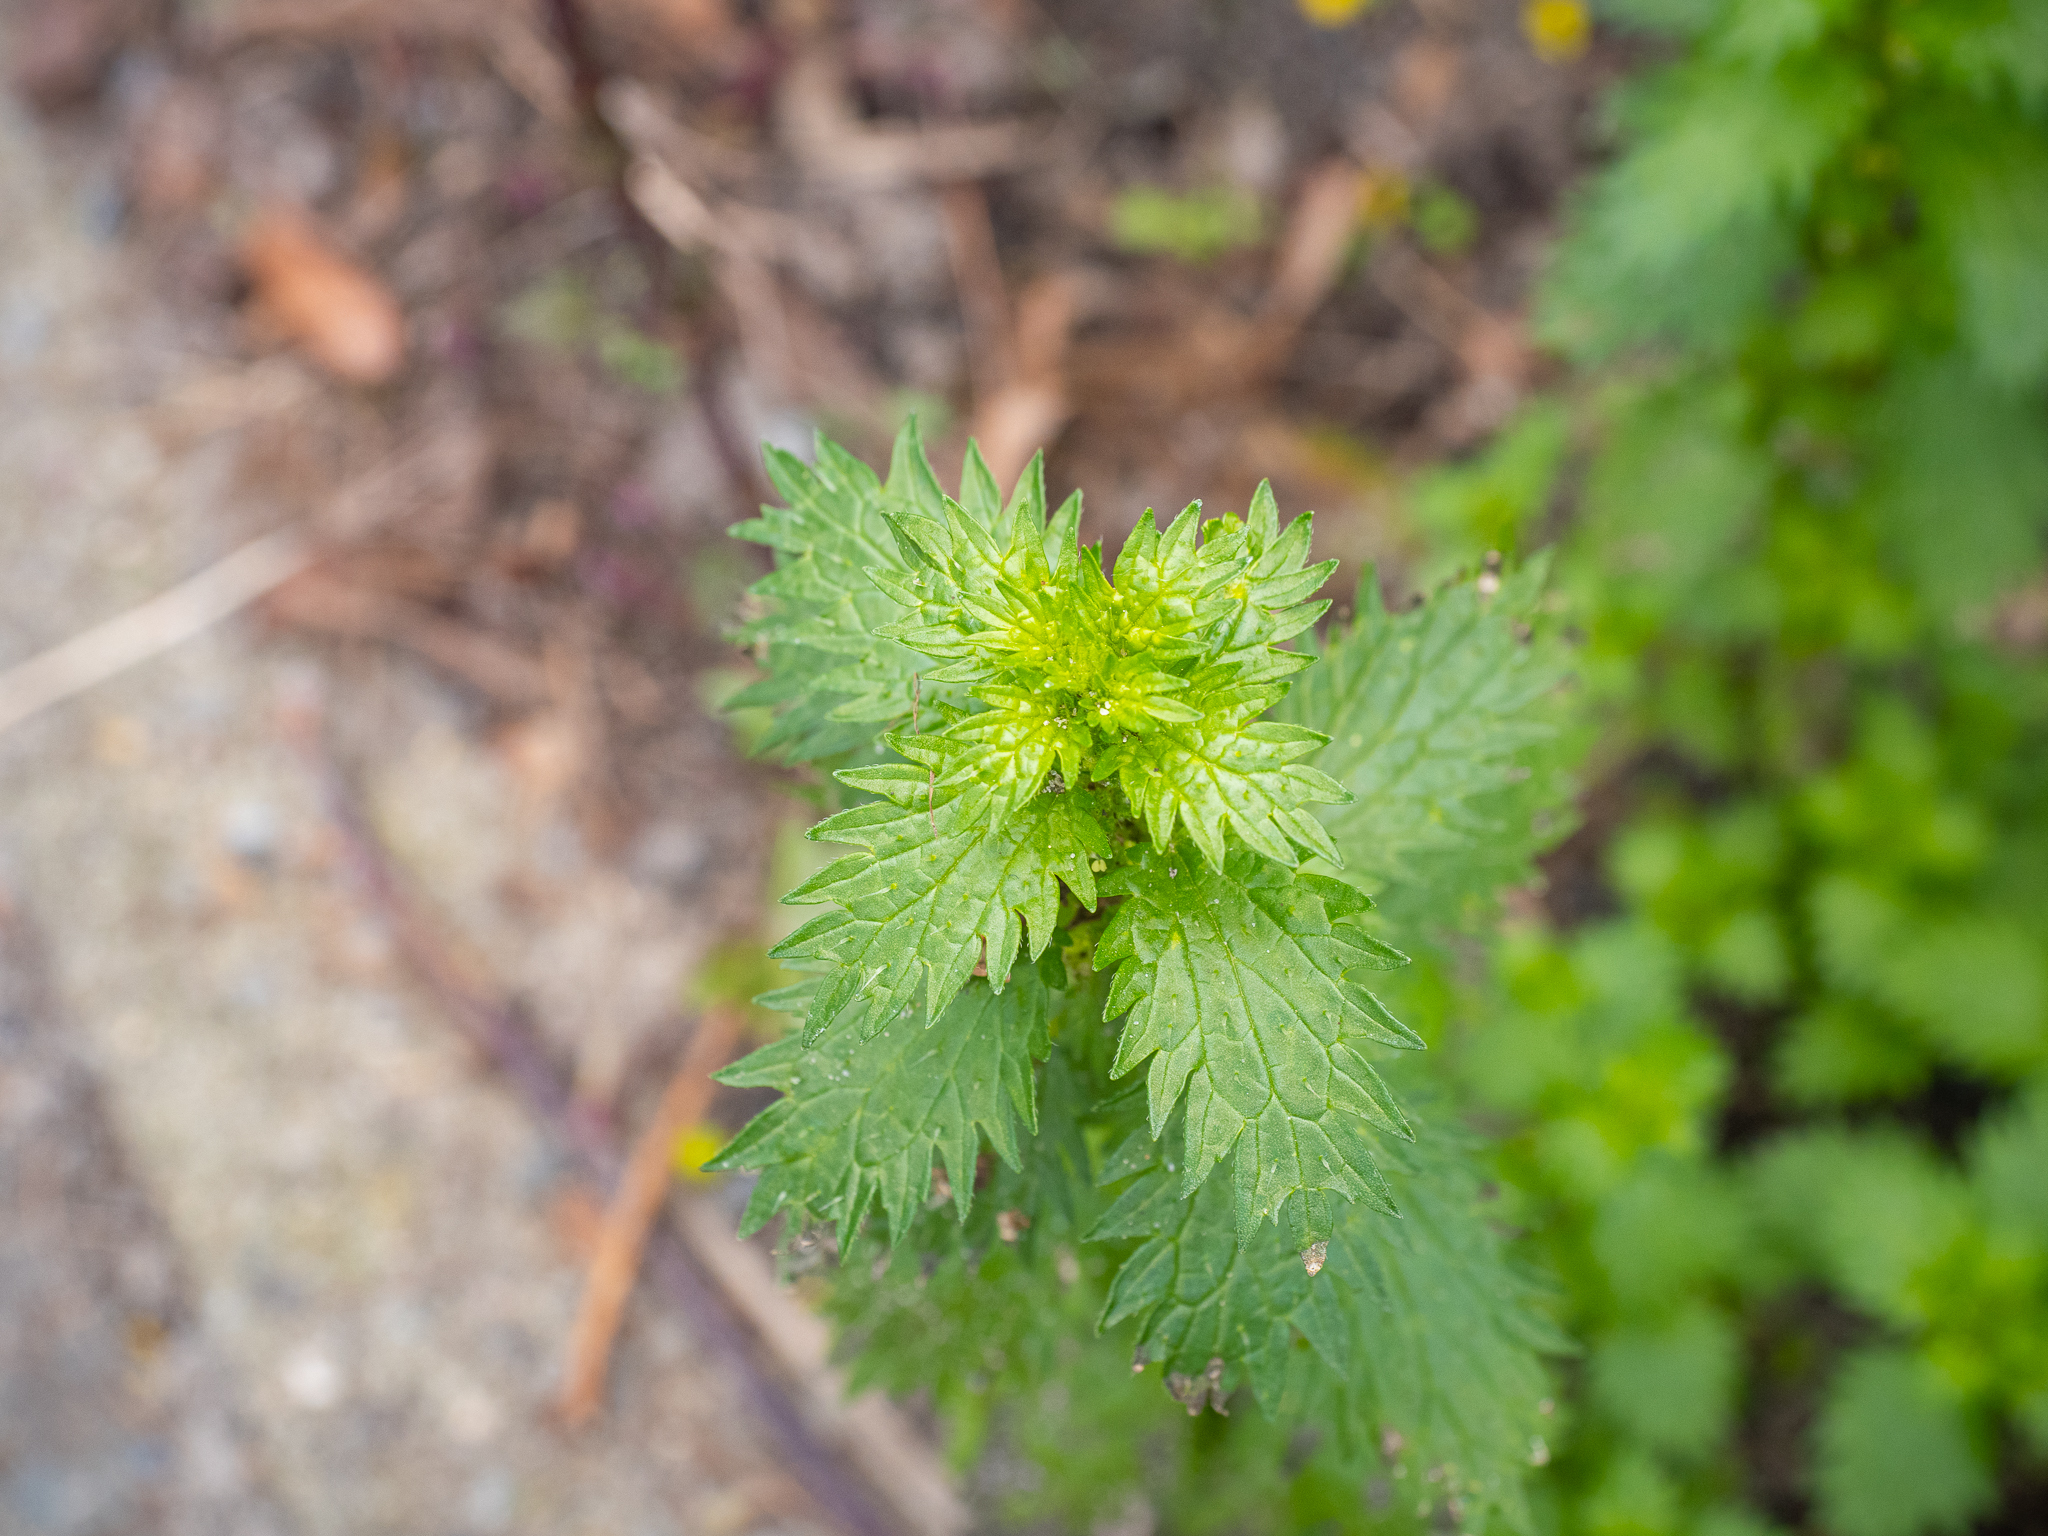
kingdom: Plantae
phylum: Tracheophyta
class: Magnoliopsida
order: Rosales
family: Urticaceae
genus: Urtica
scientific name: Urtica urens
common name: Dwarf nettle
